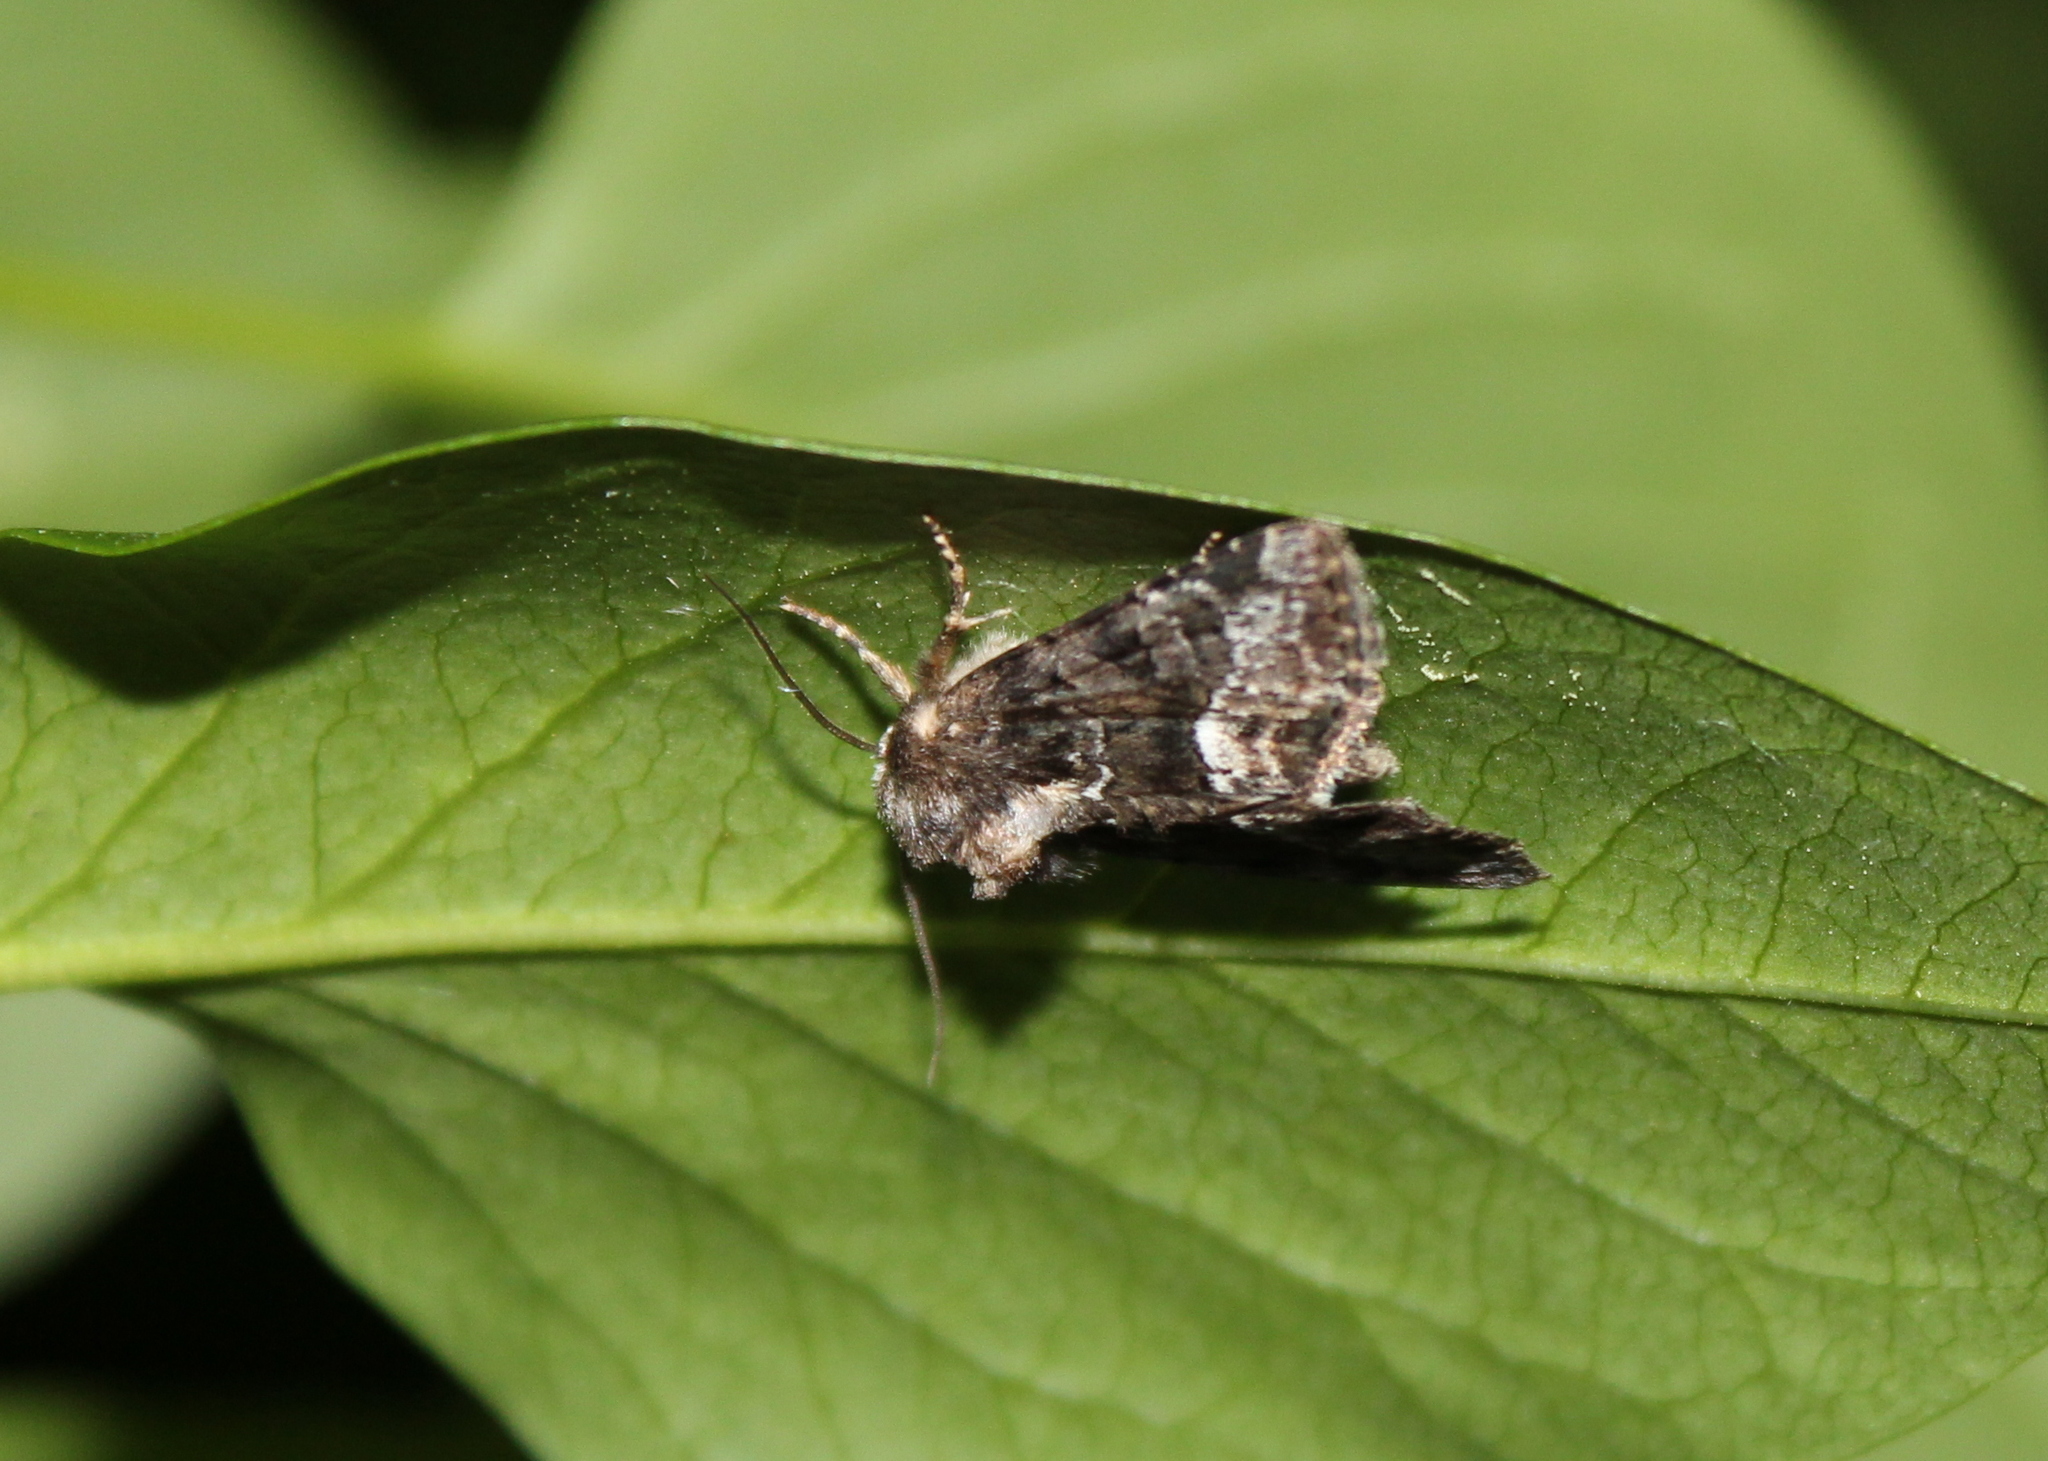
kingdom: Animalia
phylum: Arthropoda
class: Insecta
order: Lepidoptera
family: Noctuidae
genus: Oligia
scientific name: Oligia strigilis
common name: Marbled minor
